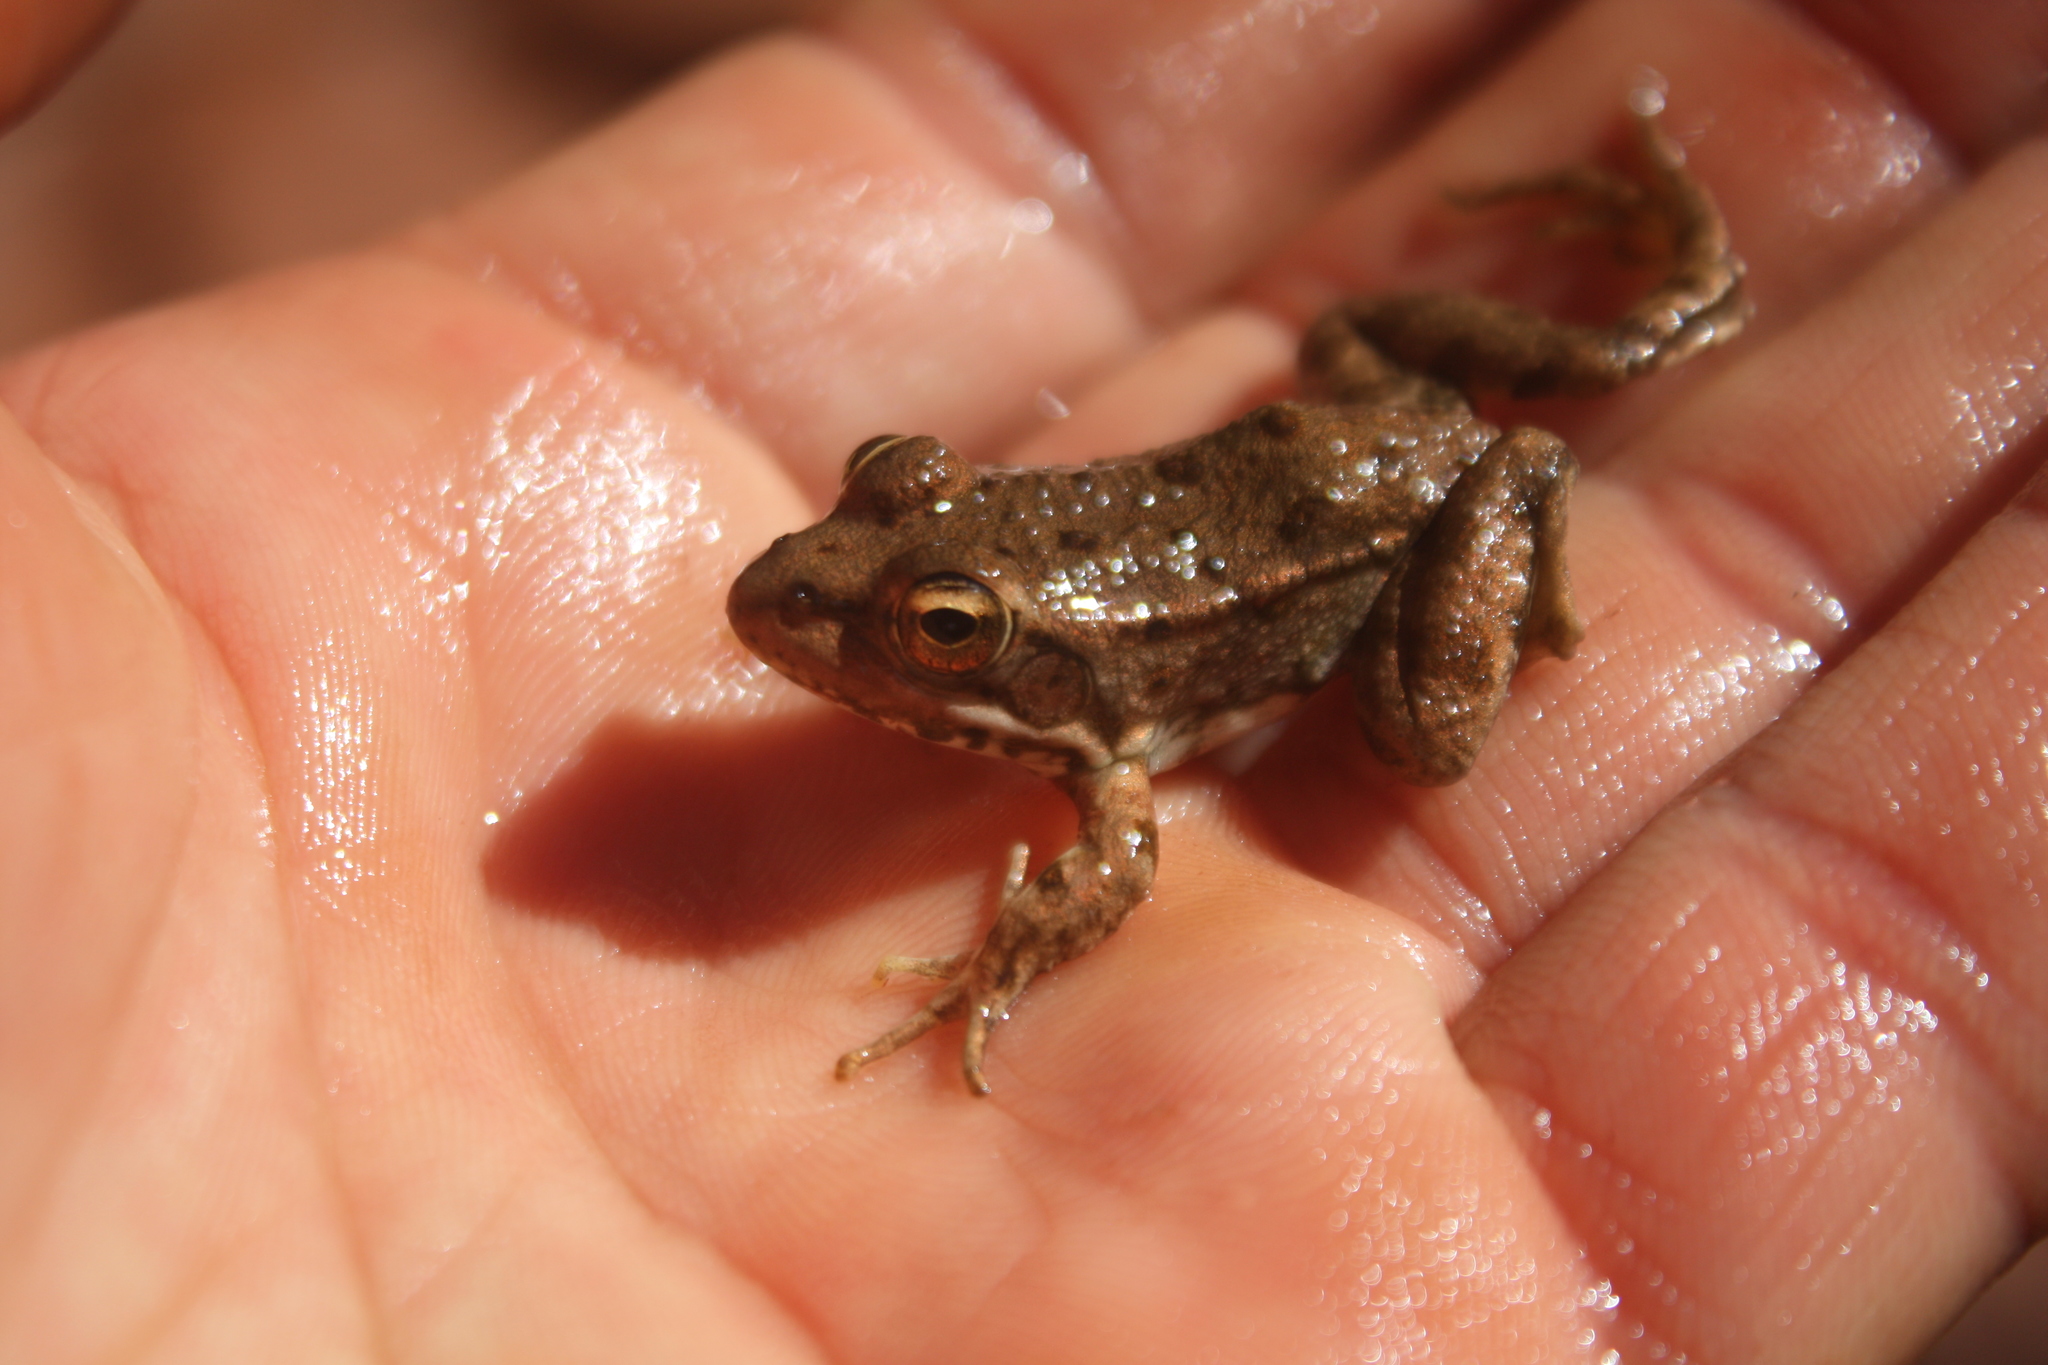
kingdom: Animalia
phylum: Chordata
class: Amphibia
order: Anura
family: Ranidae
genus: Pelophylax
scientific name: Pelophylax saharicus
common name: Sahara frog
